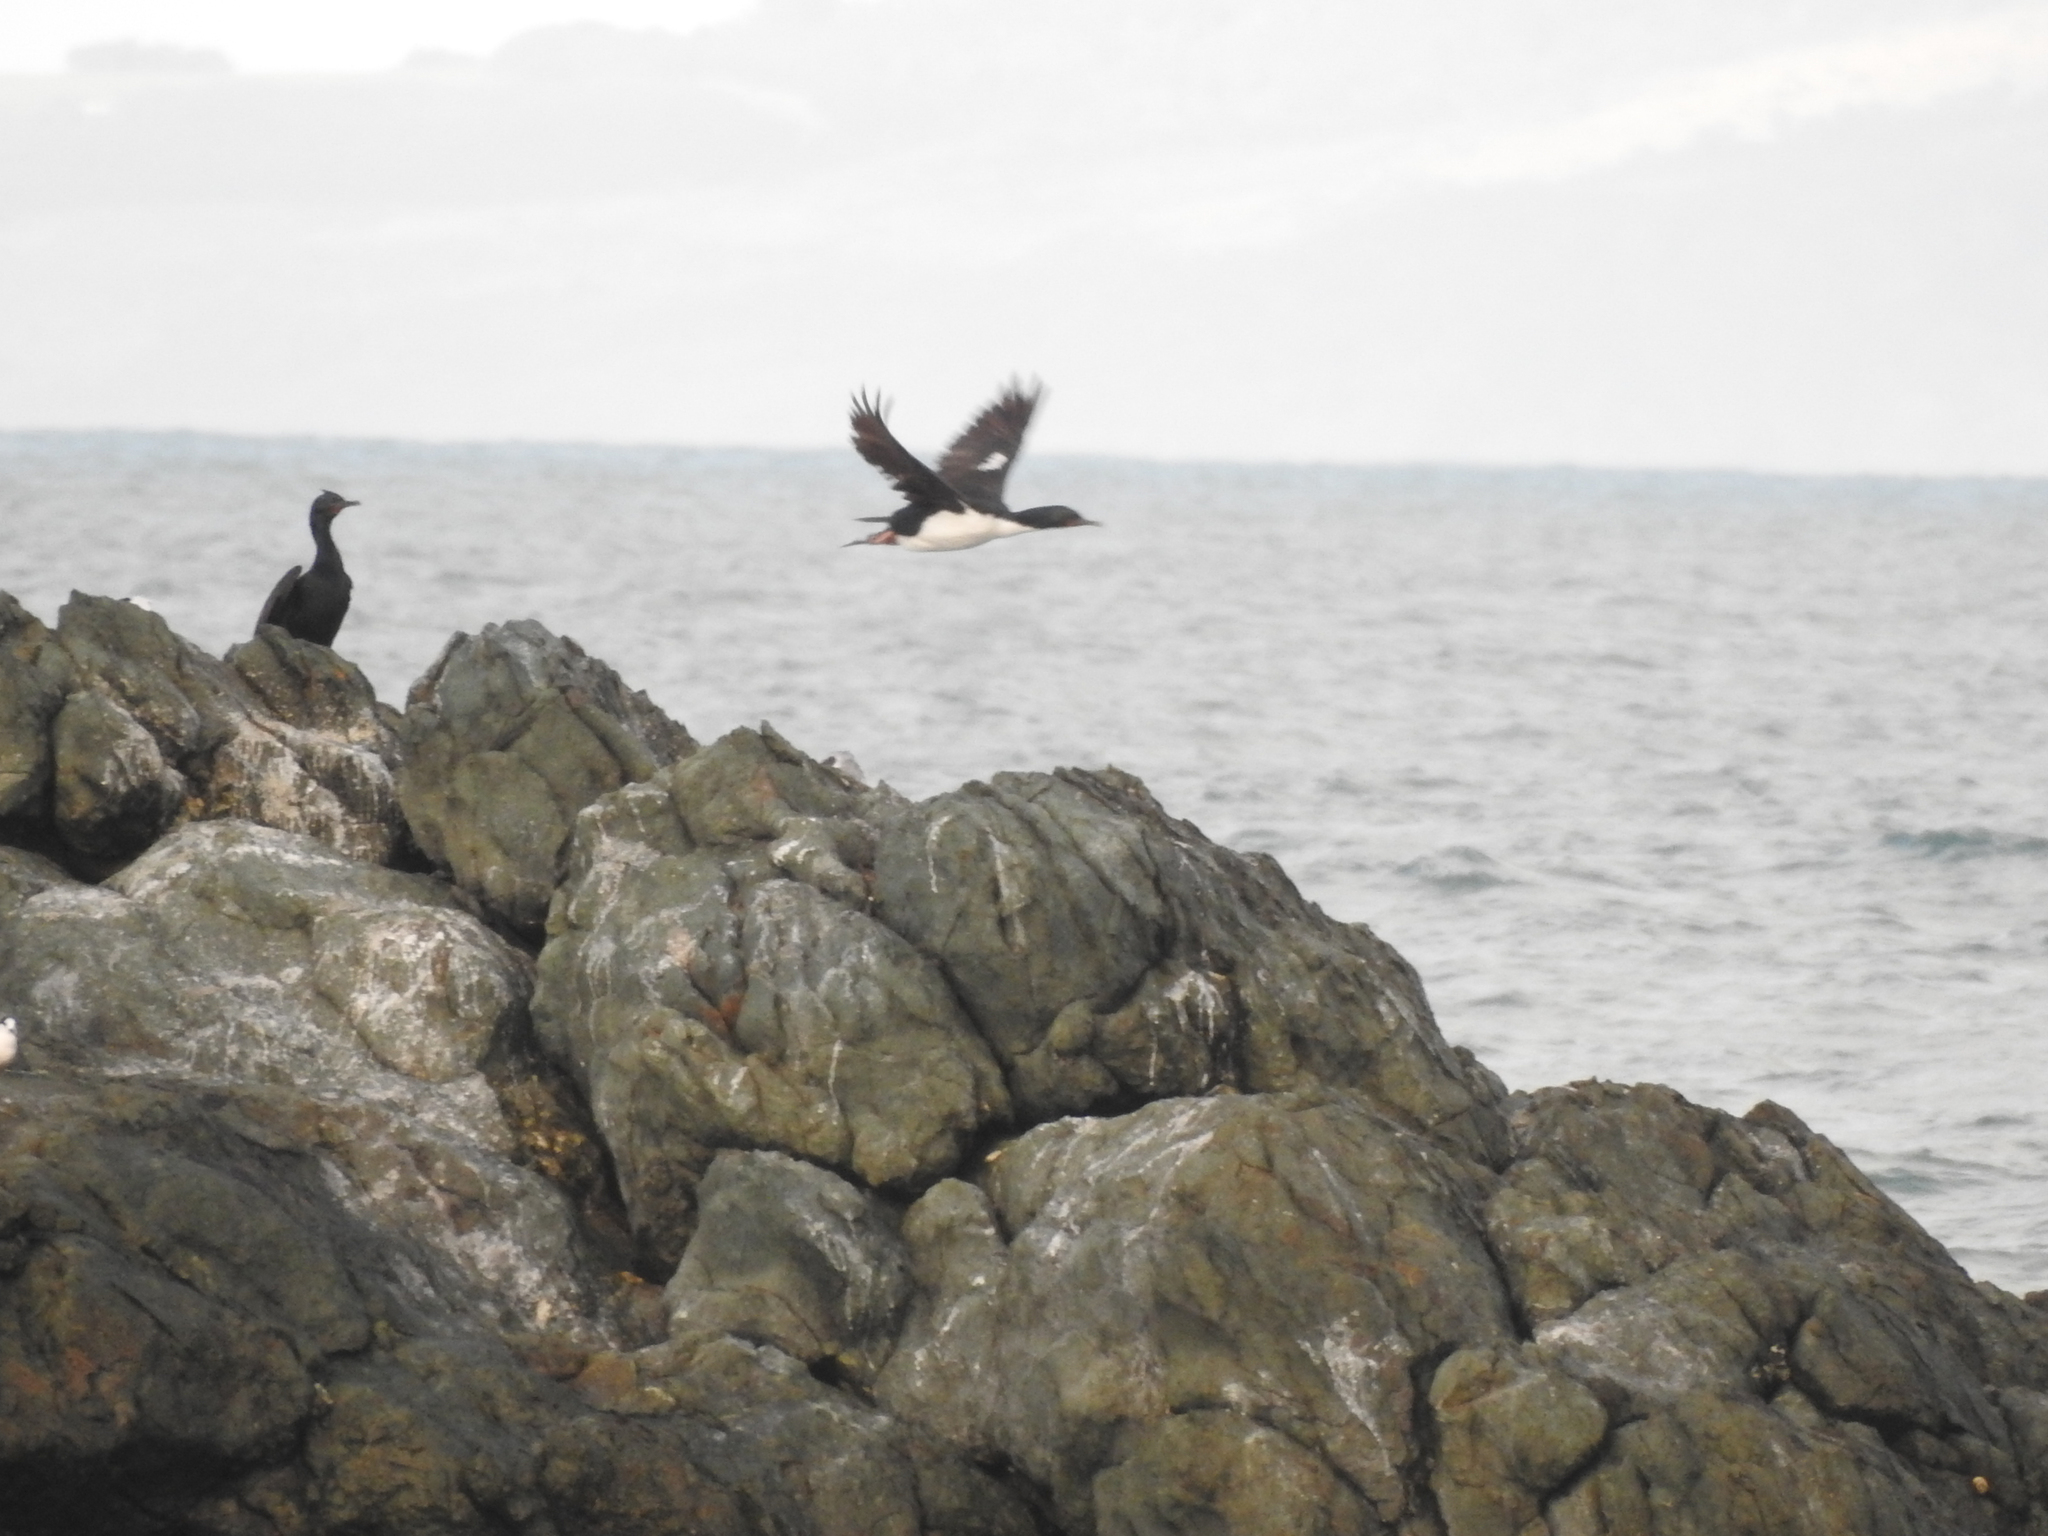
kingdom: Animalia
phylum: Chordata
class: Aves
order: Suliformes
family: Phalacrocoracidae
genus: Leucocarbo
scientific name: Leucocarbo chalconotus
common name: Stewart shag
